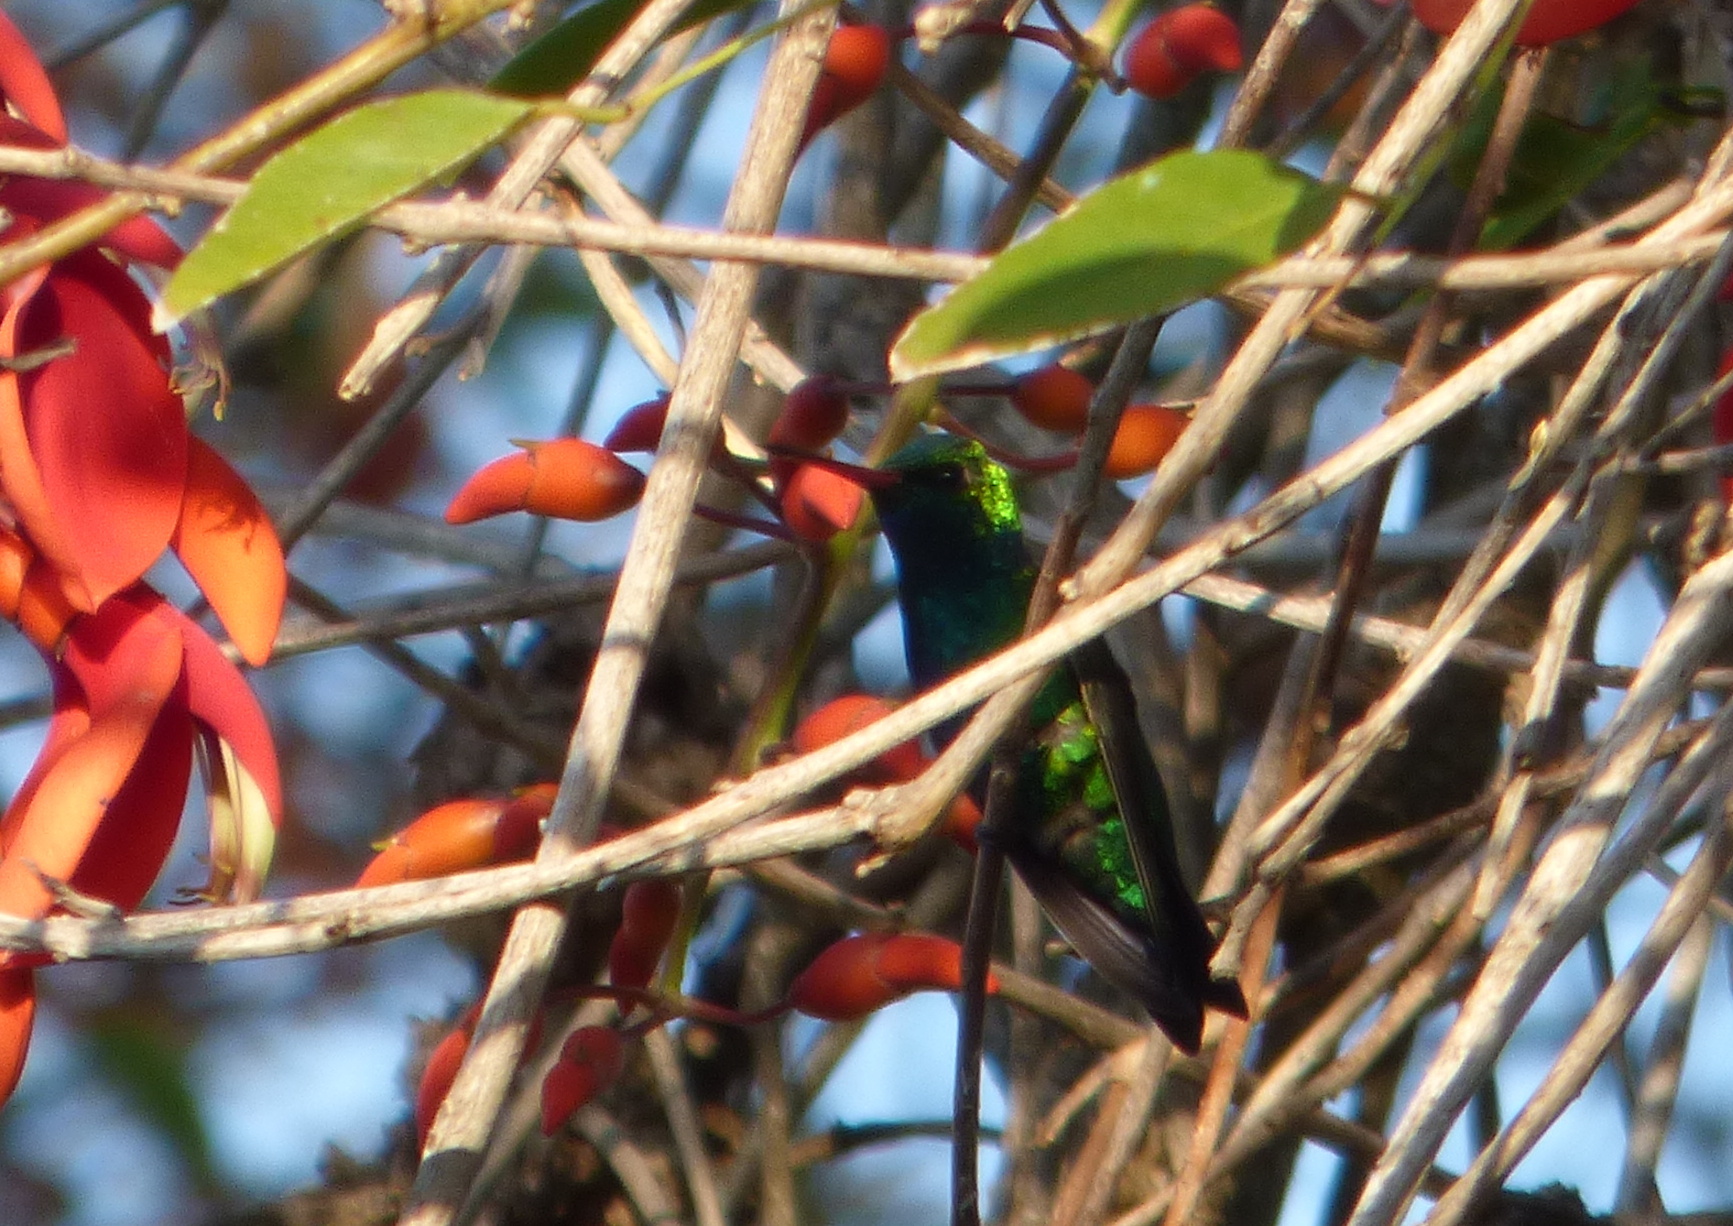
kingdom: Animalia
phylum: Chordata
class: Aves
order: Apodiformes
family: Trochilidae
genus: Chlorostilbon
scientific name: Chlorostilbon lucidus
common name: Glittering-bellied emerald
